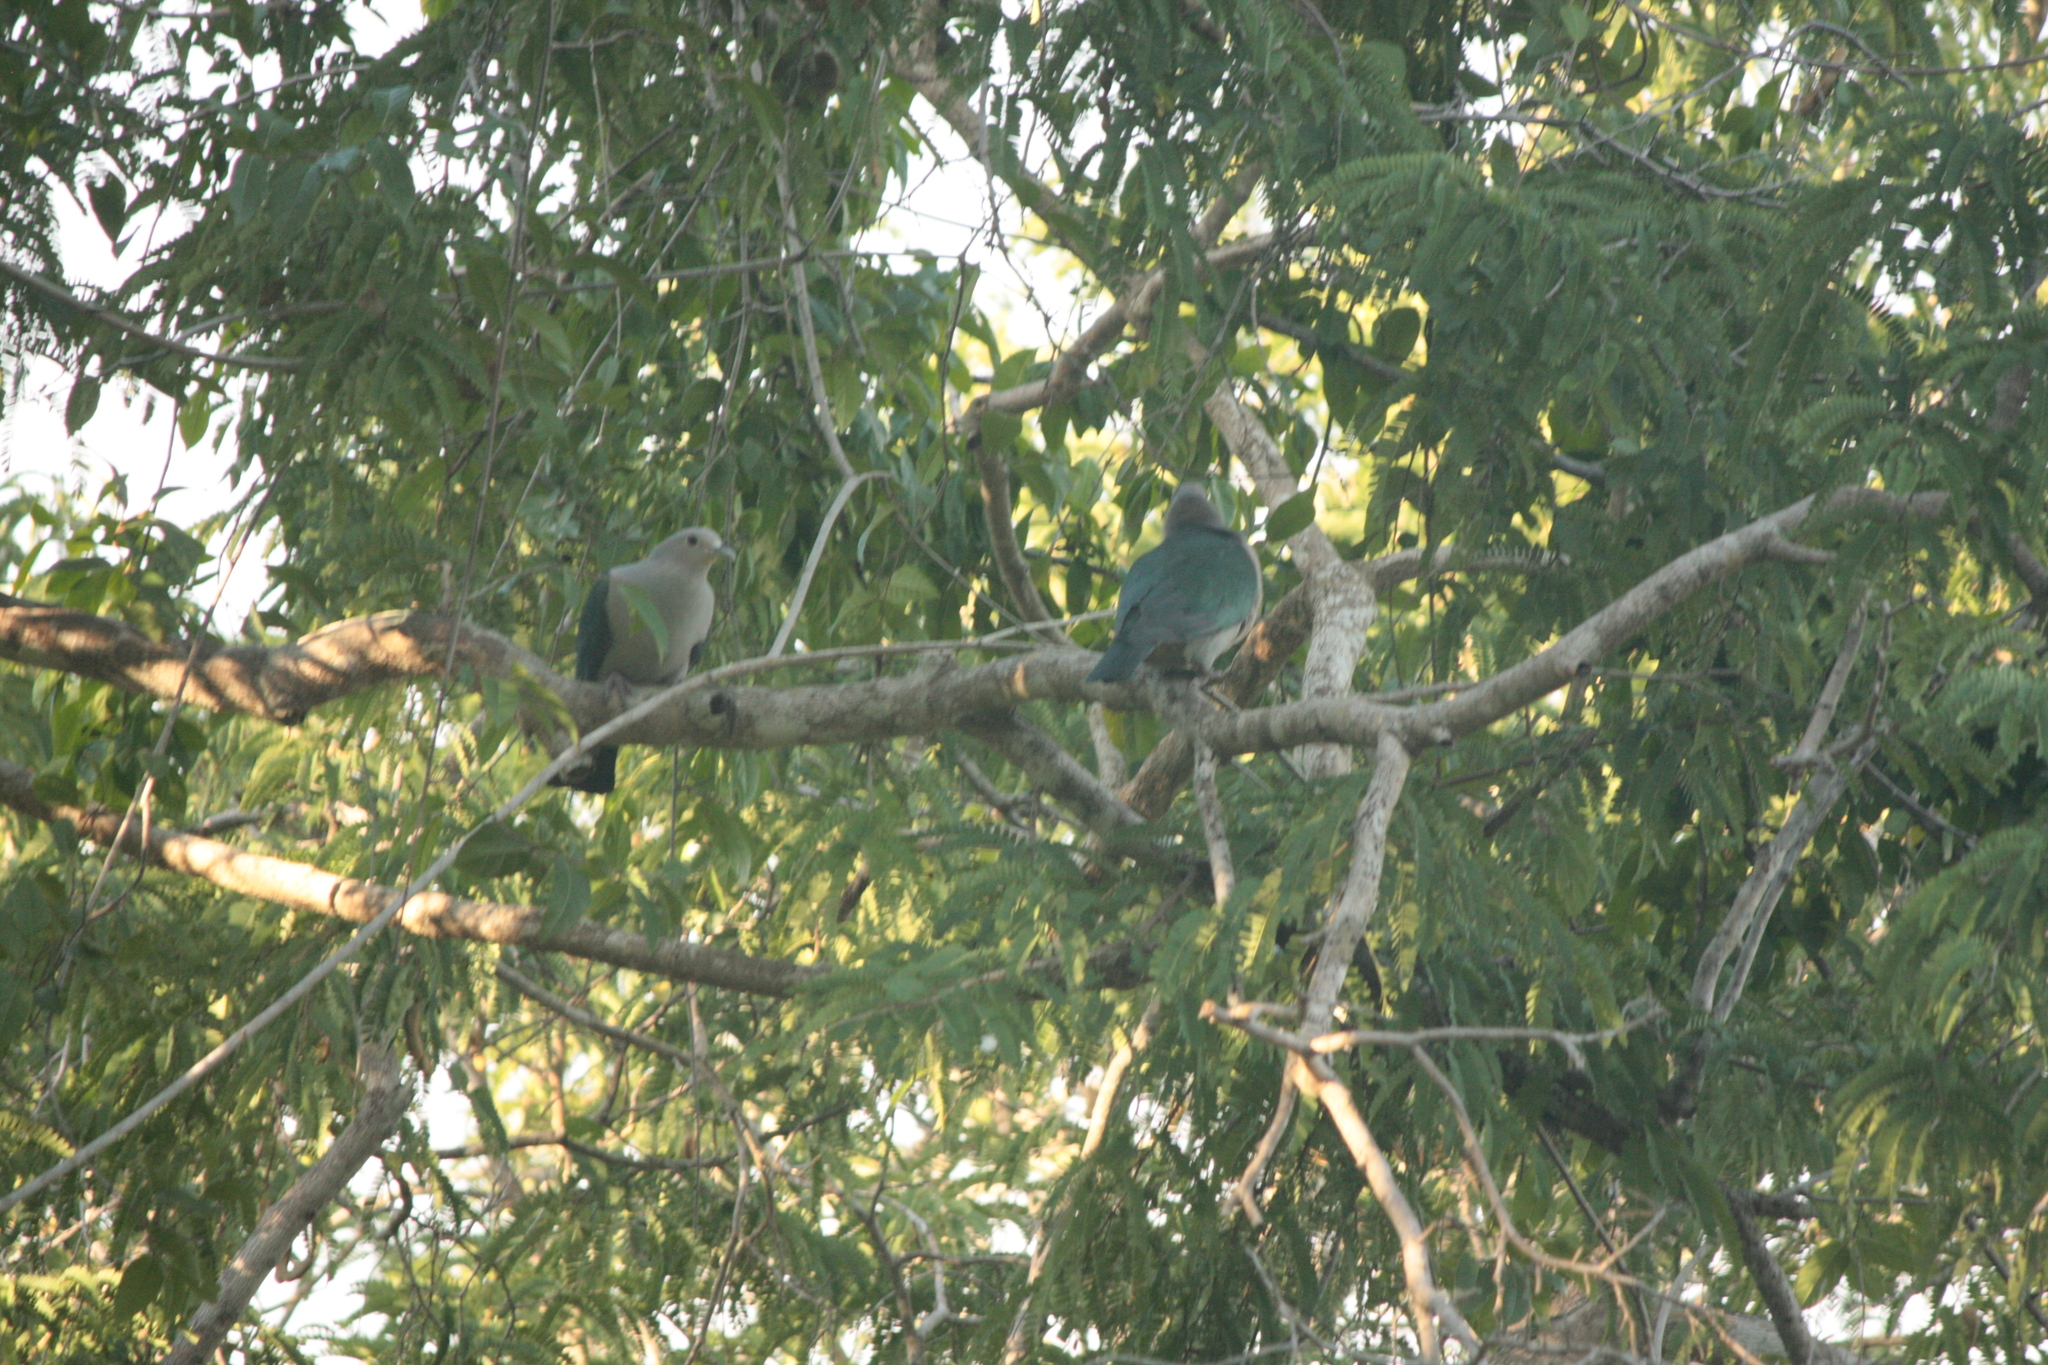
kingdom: Animalia
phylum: Chordata
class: Aves
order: Columbiformes
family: Columbidae
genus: Ducula
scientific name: Ducula aenea
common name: Green imperial pigeon
